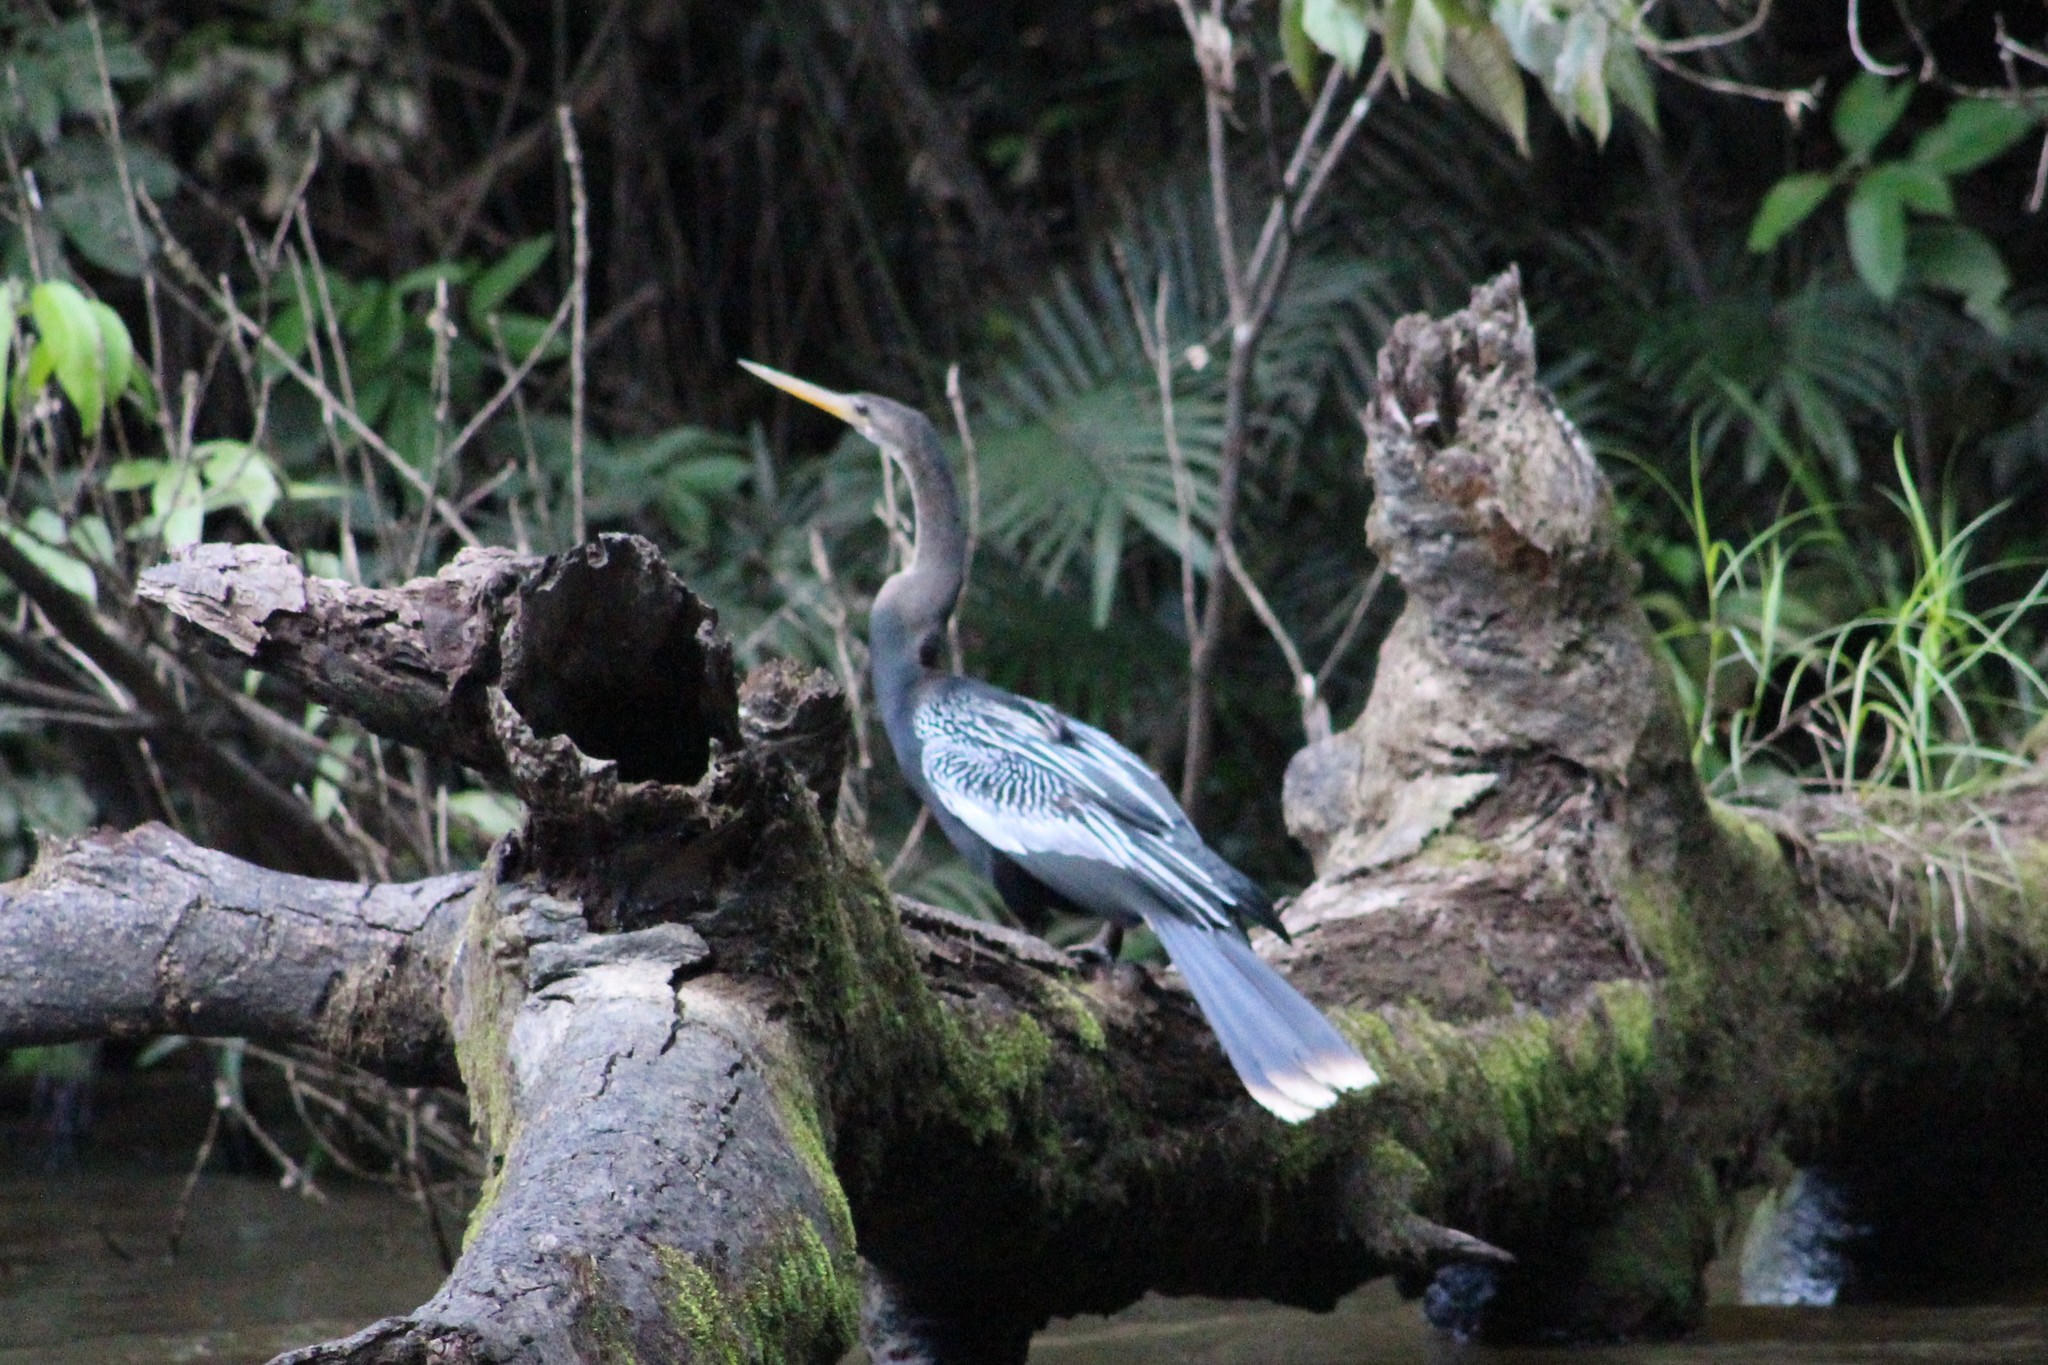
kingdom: Animalia
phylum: Chordata
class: Aves
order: Suliformes
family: Anhingidae
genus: Anhinga
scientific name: Anhinga anhinga
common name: Anhinga
